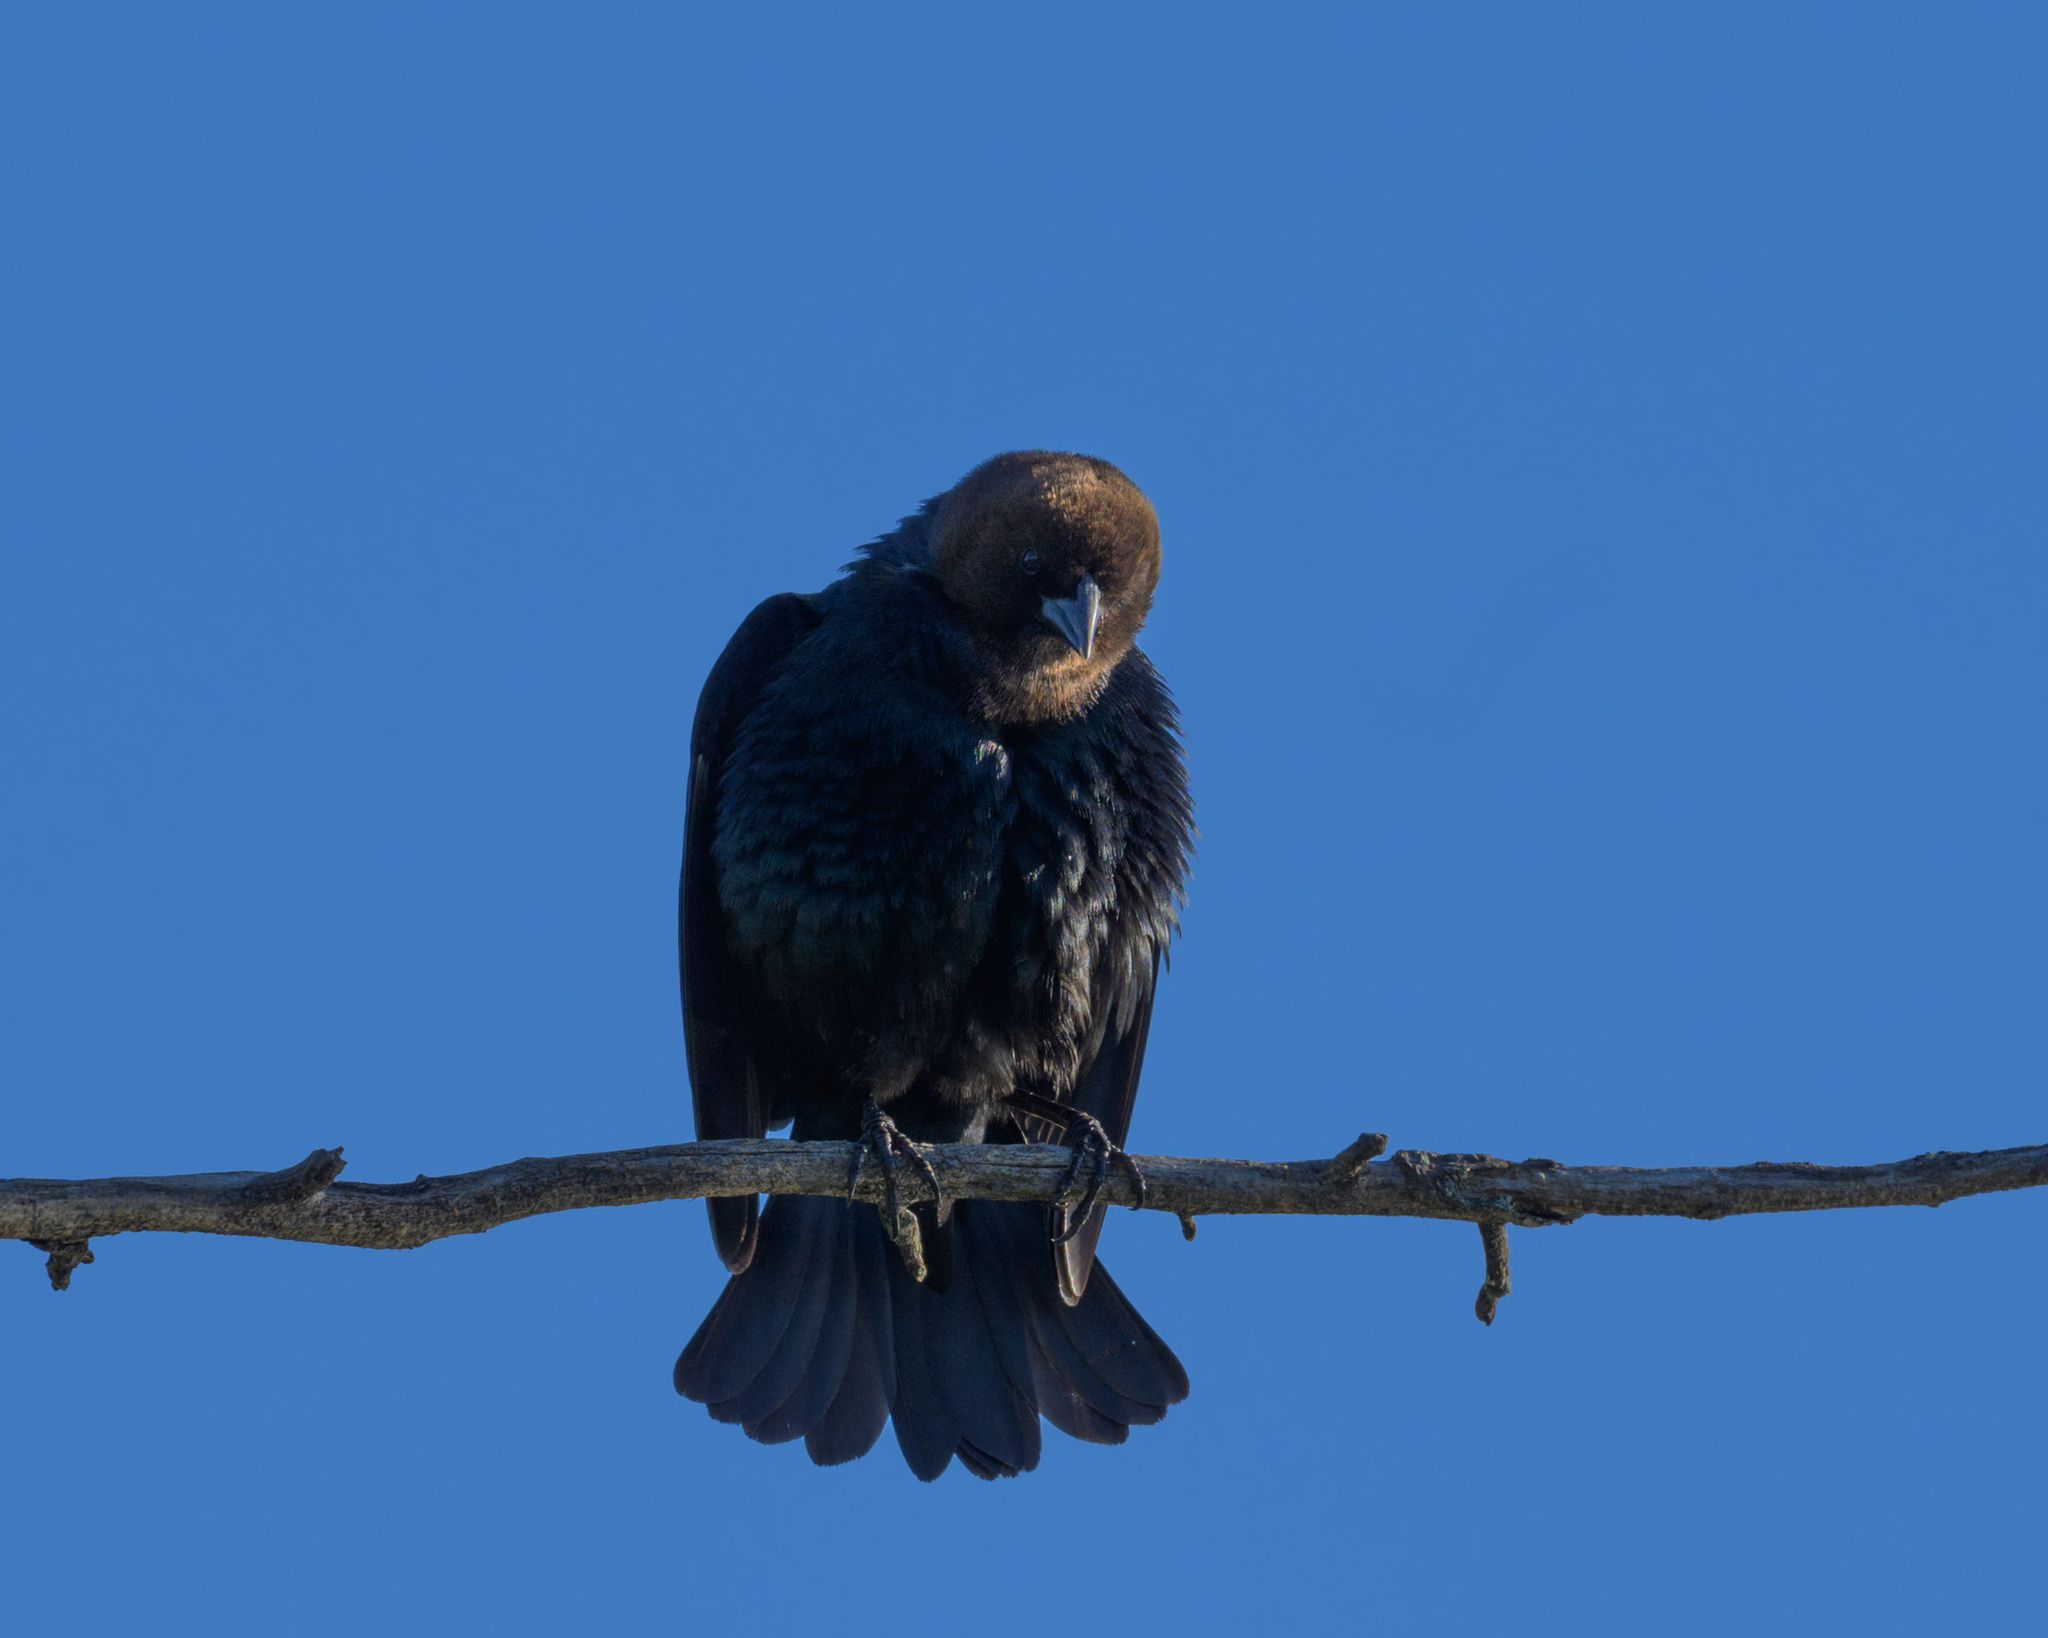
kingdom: Animalia
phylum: Chordata
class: Aves
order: Passeriformes
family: Icteridae
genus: Molothrus
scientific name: Molothrus ater
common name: Brown-headed cowbird
